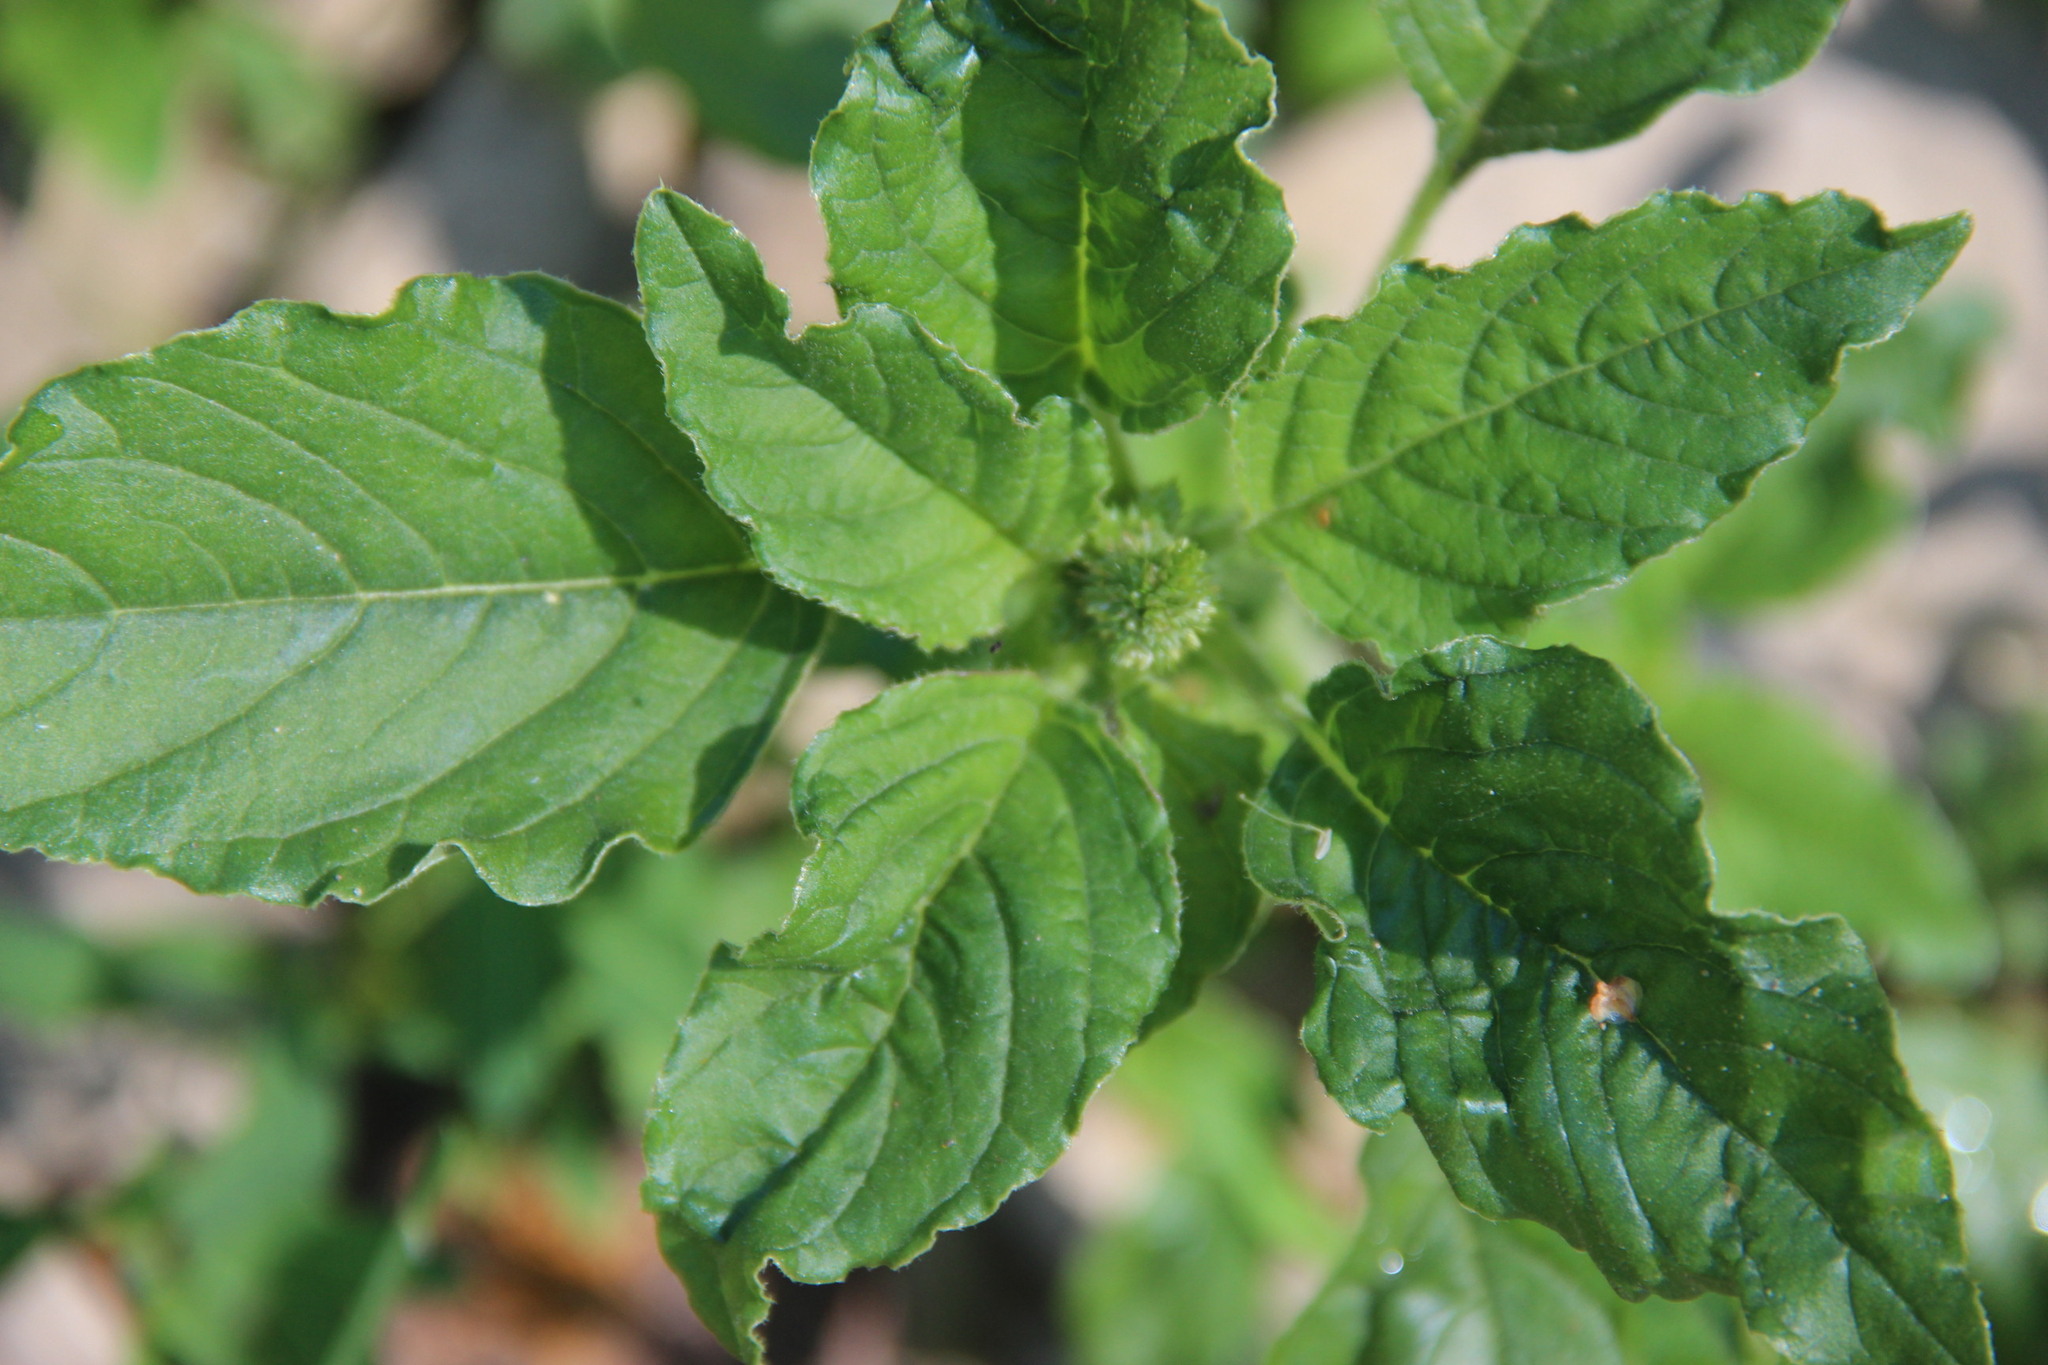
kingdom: Plantae
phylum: Tracheophyta
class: Magnoliopsida
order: Caryophyllales
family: Amaranthaceae
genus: Amaranthus
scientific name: Amaranthus retroflexus
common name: Redroot amaranth
